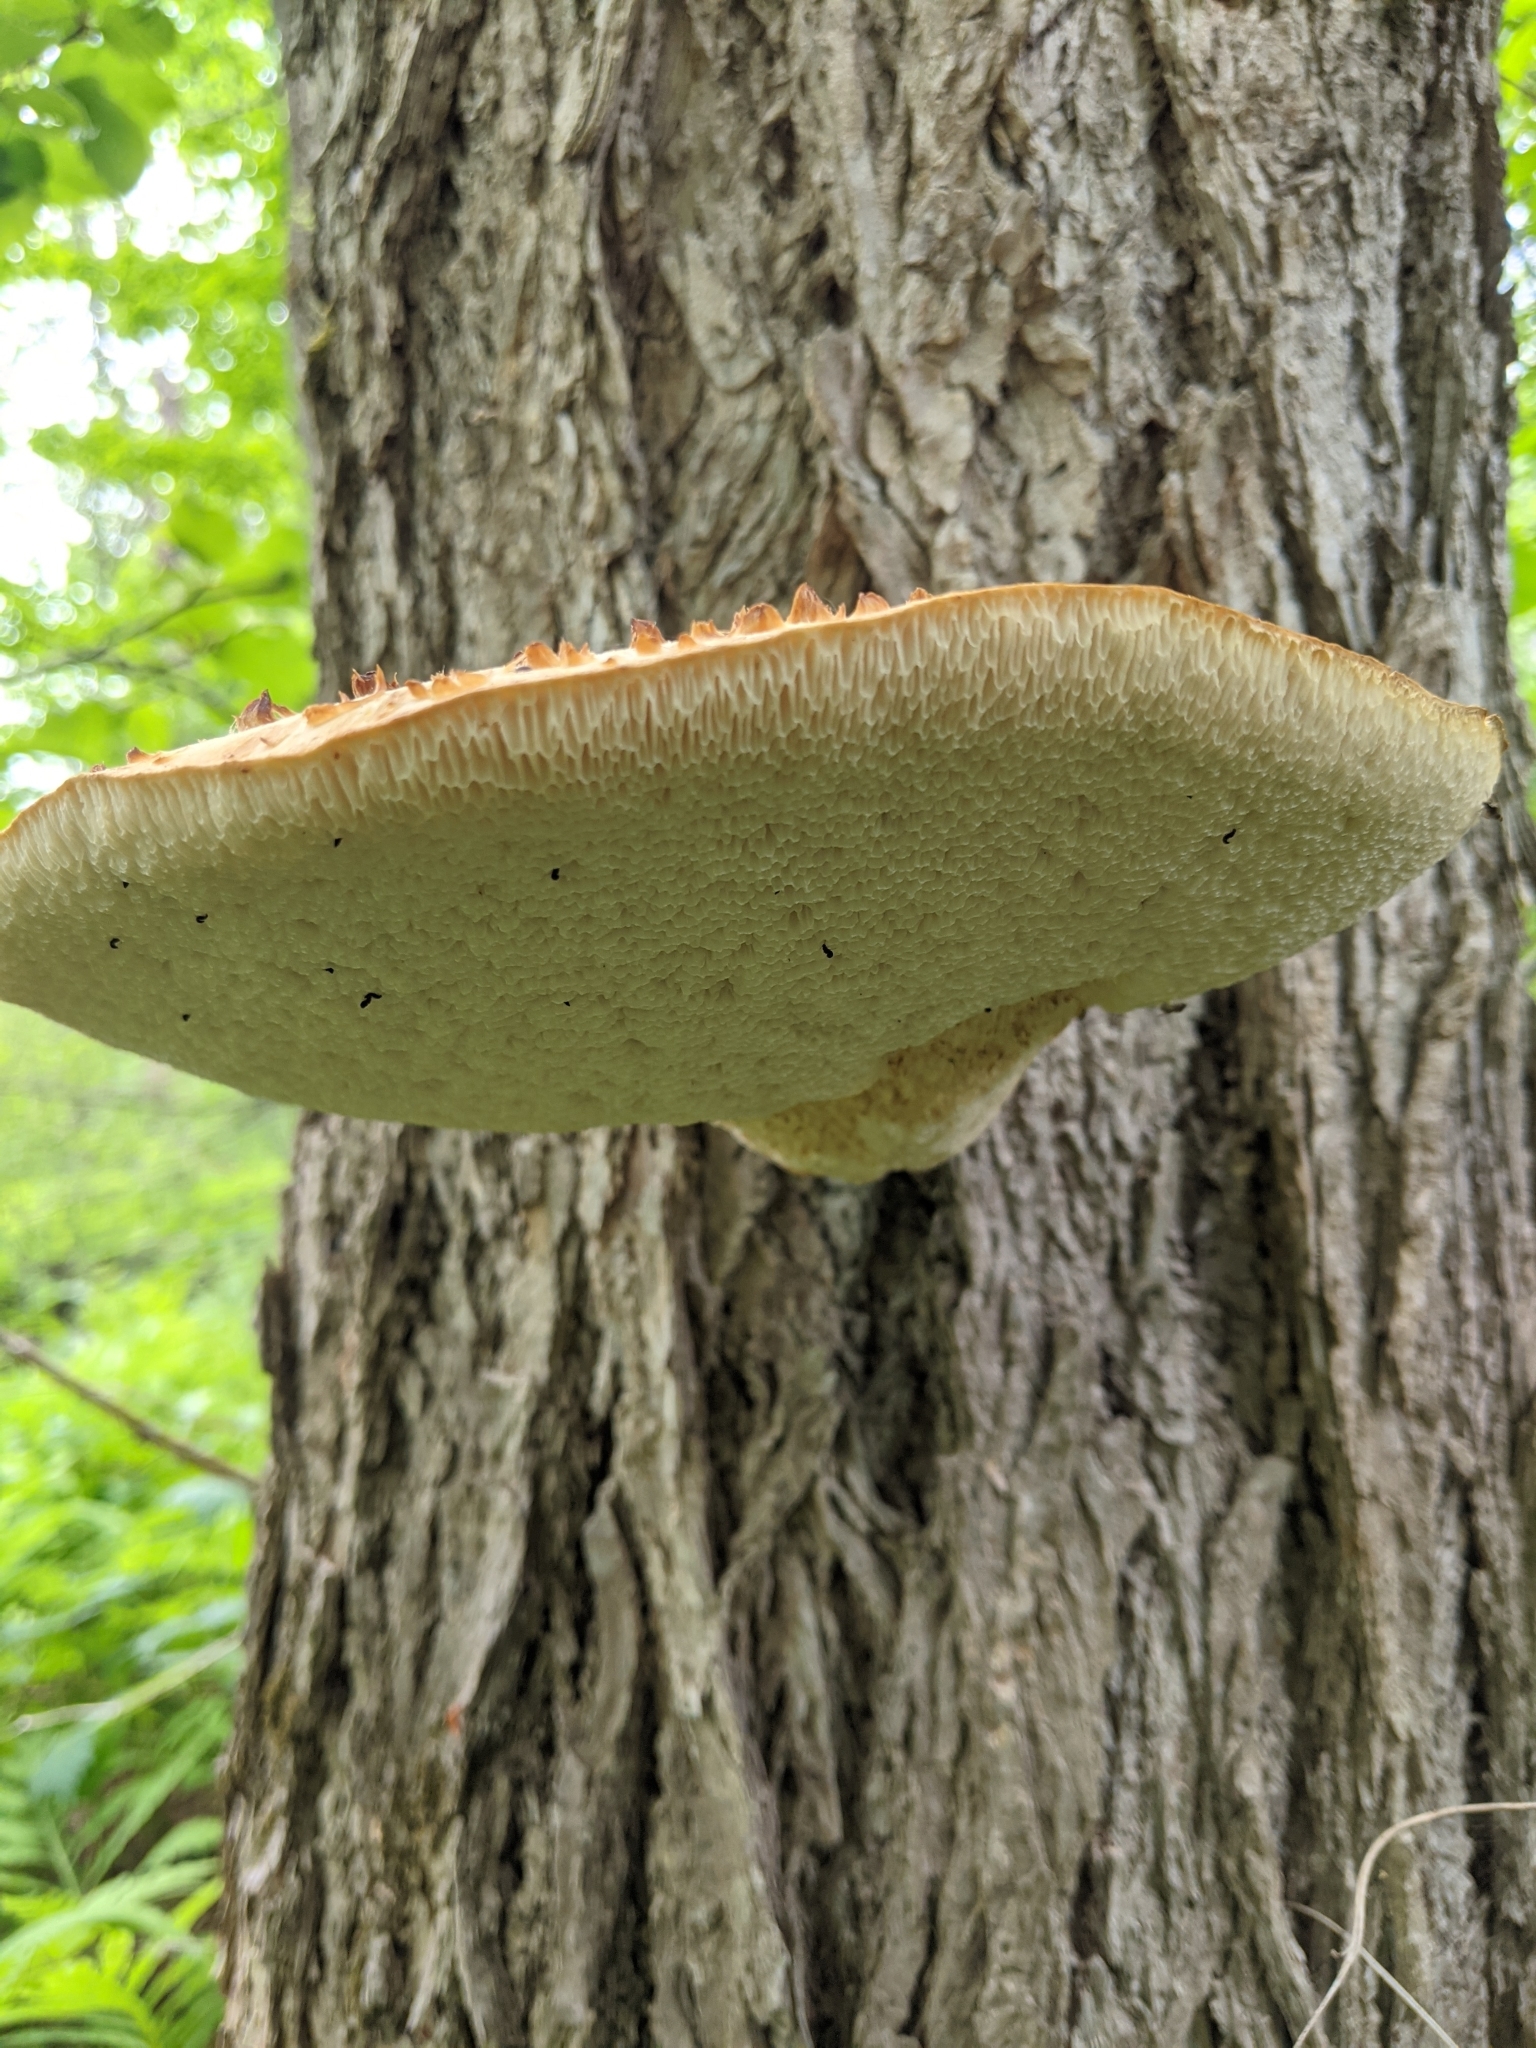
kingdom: Fungi
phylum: Basidiomycota
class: Agaricomycetes
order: Polyporales
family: Polyporaceae
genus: Cerioporus
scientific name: Cerioporus squamosus
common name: Dryad's saddle
